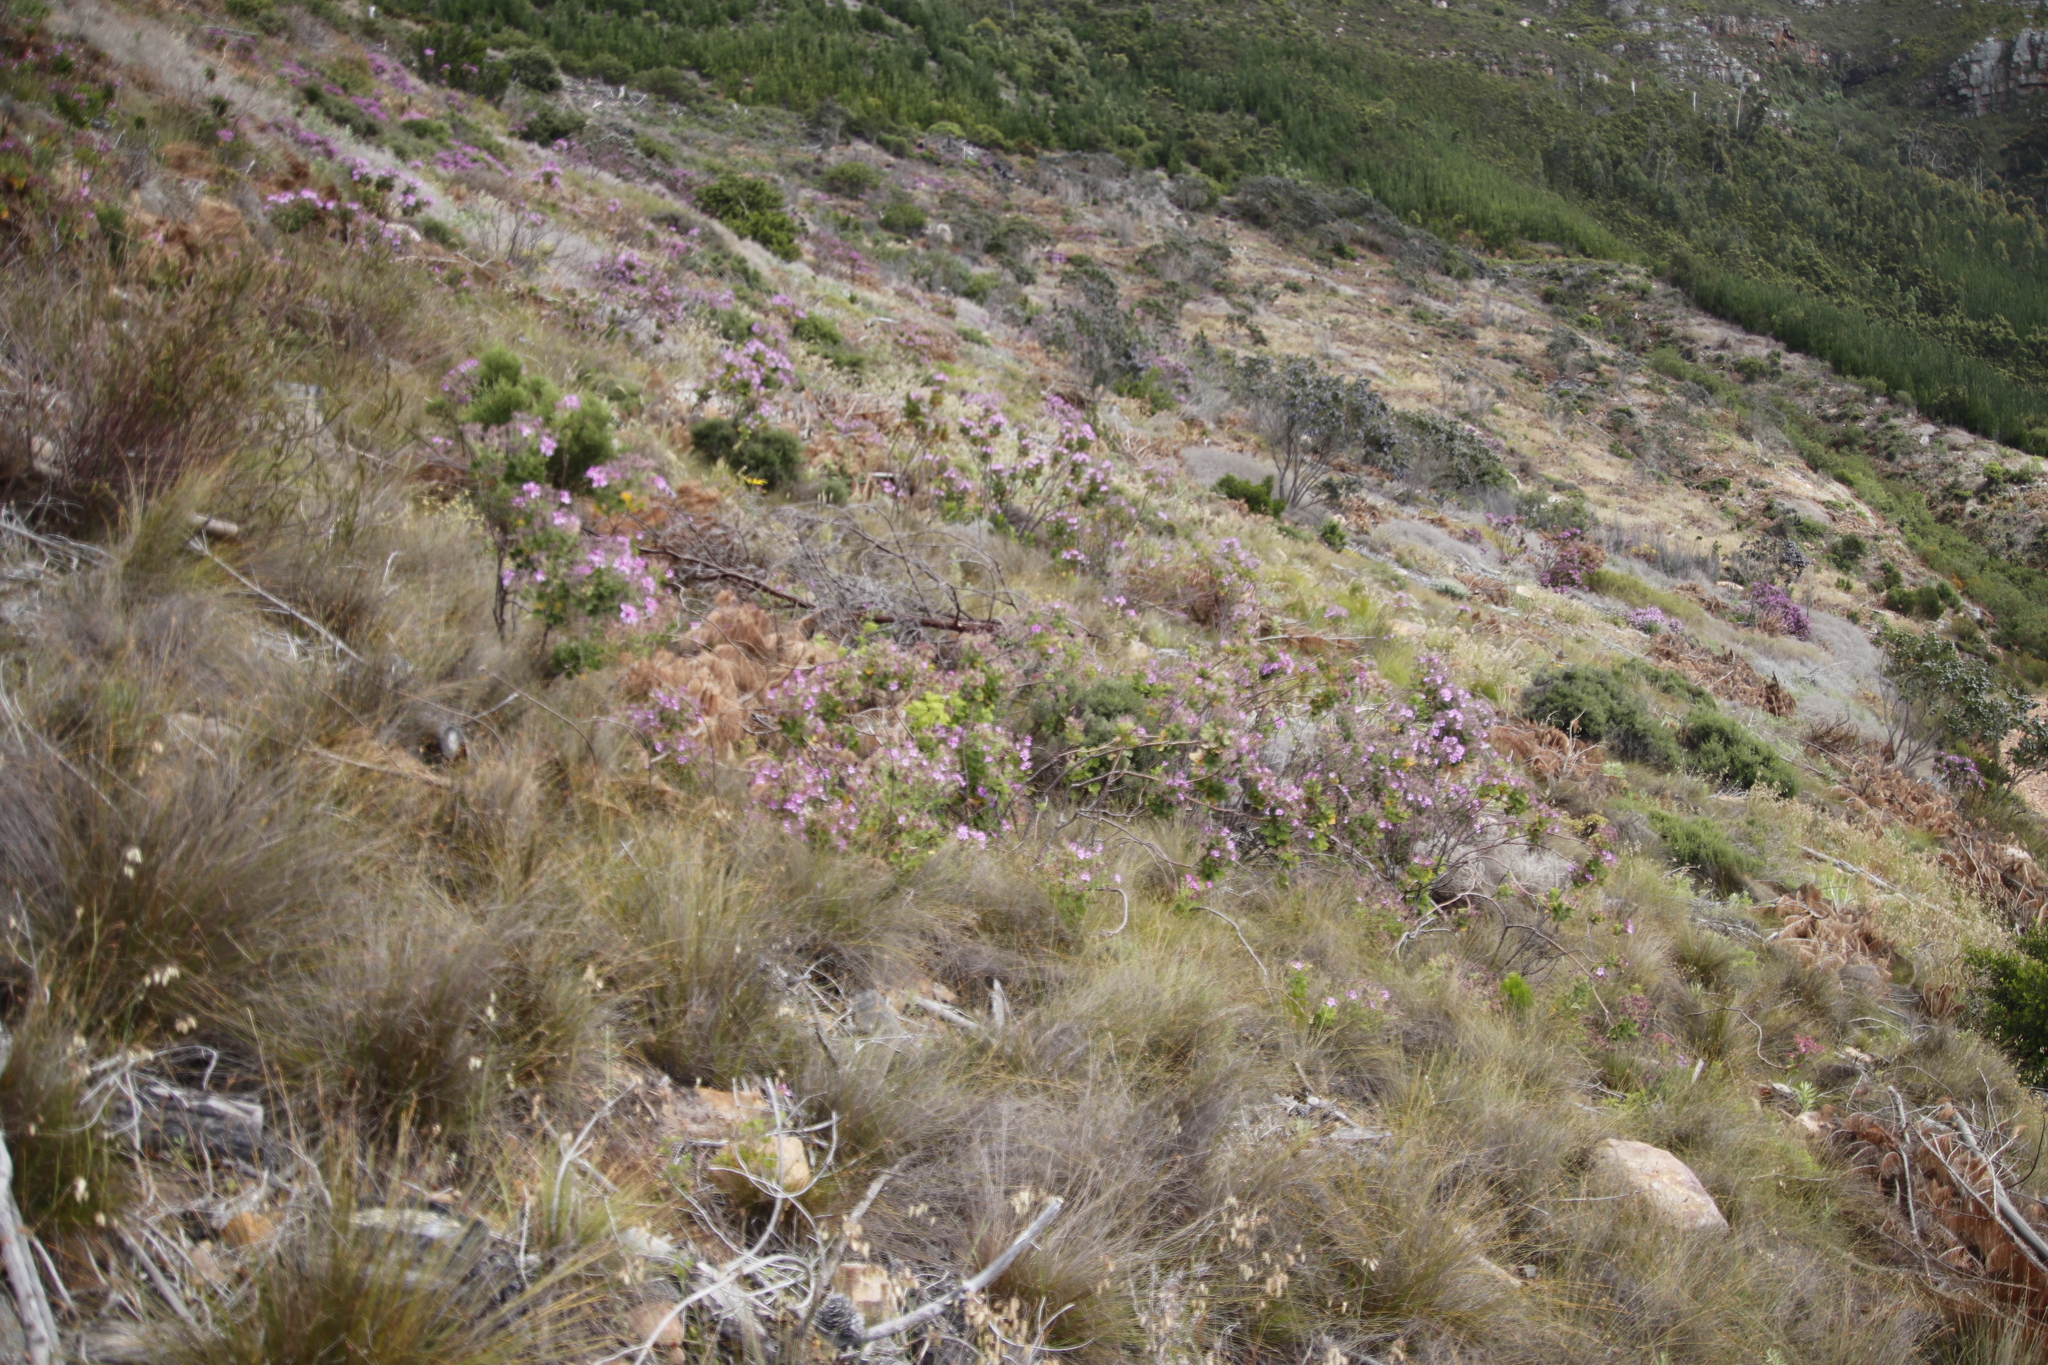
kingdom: Plantae
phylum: Tracheophyta
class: Magnoliopsida
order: Geraniales
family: Geraniaceae
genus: Pelargonium
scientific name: Pelargonium cucullatum
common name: Tree pelargonium
